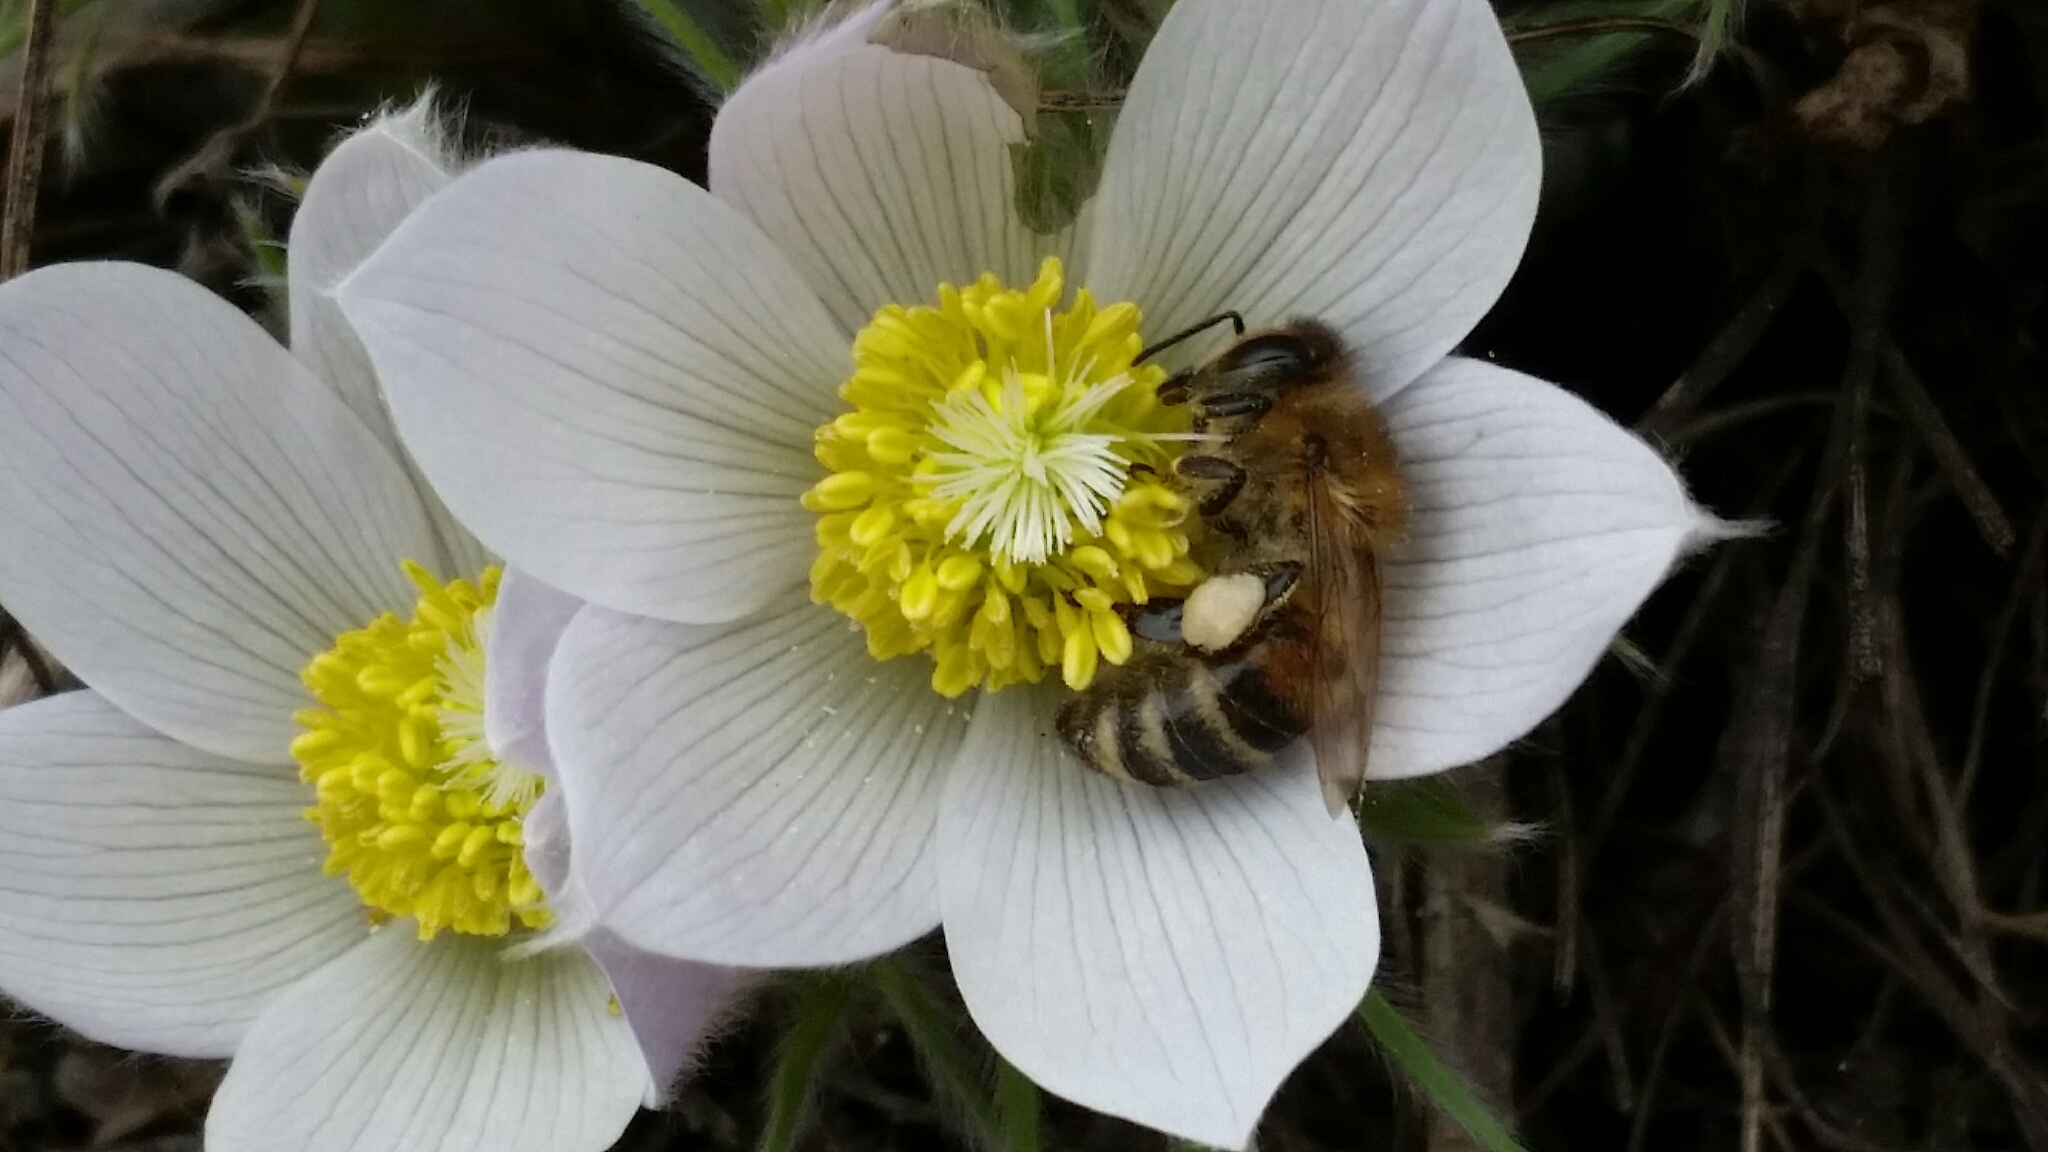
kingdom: Animalia
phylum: Arthropoda
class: Insecta
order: Hymenoptera
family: Apidae
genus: Apis
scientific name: Apis mellifera
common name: Honey bee
